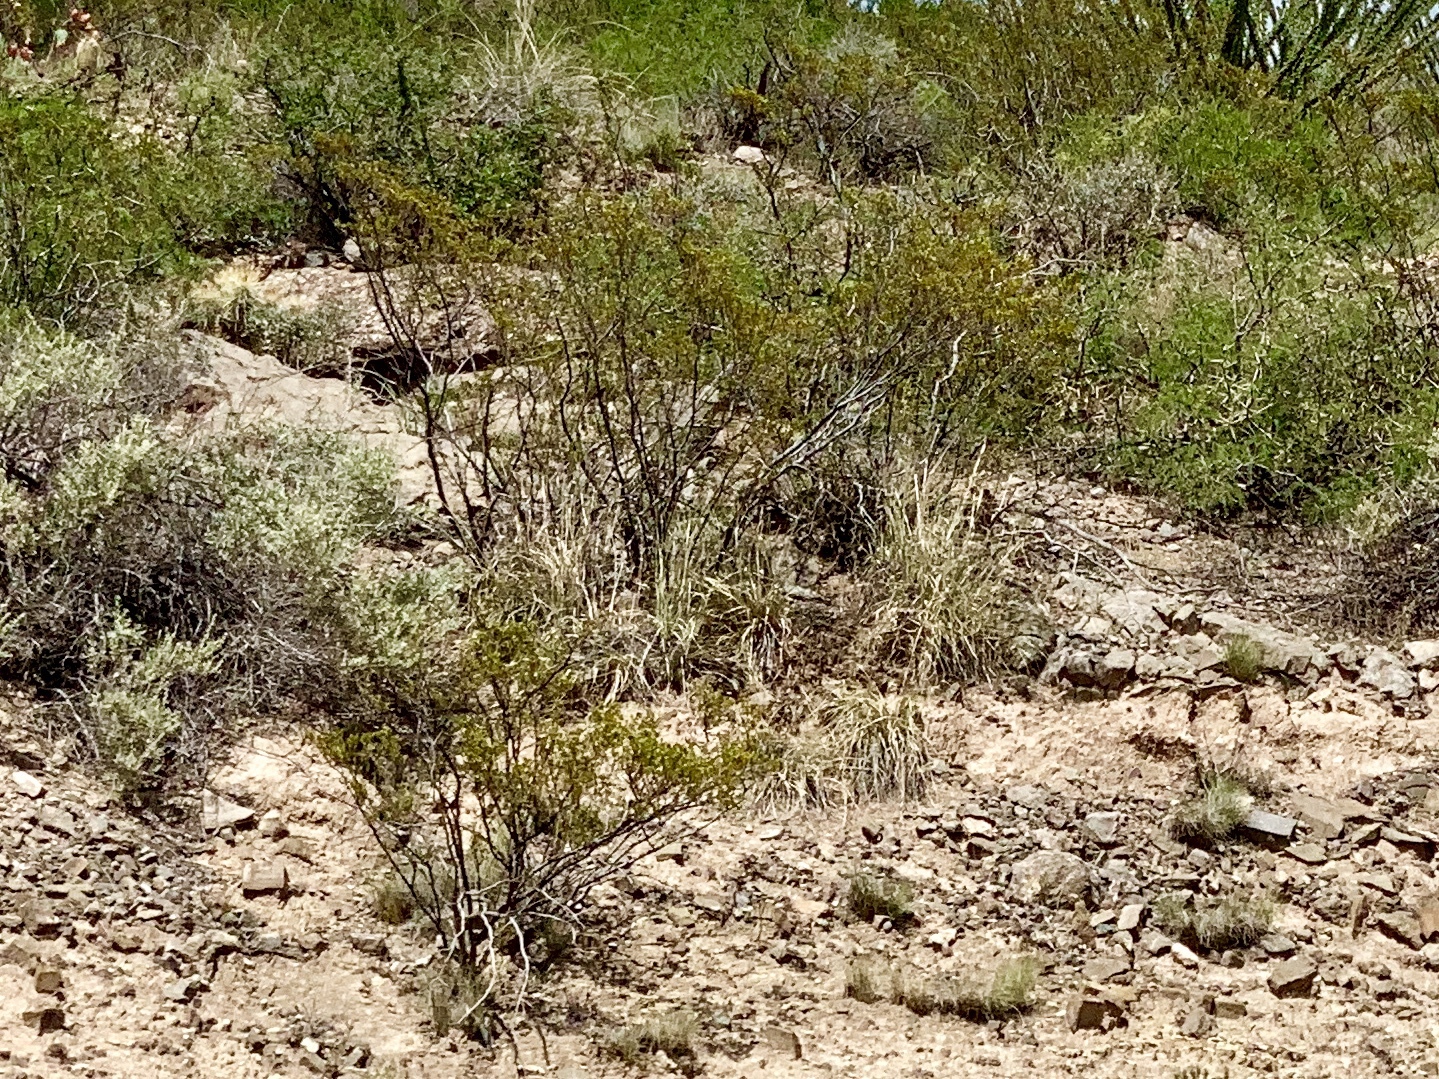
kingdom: Plantae
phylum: Tracheophyta
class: Magnoliopsida
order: Zygophyllales
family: Zygophyllaceae
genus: Larrea
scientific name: Larrea tridentata
